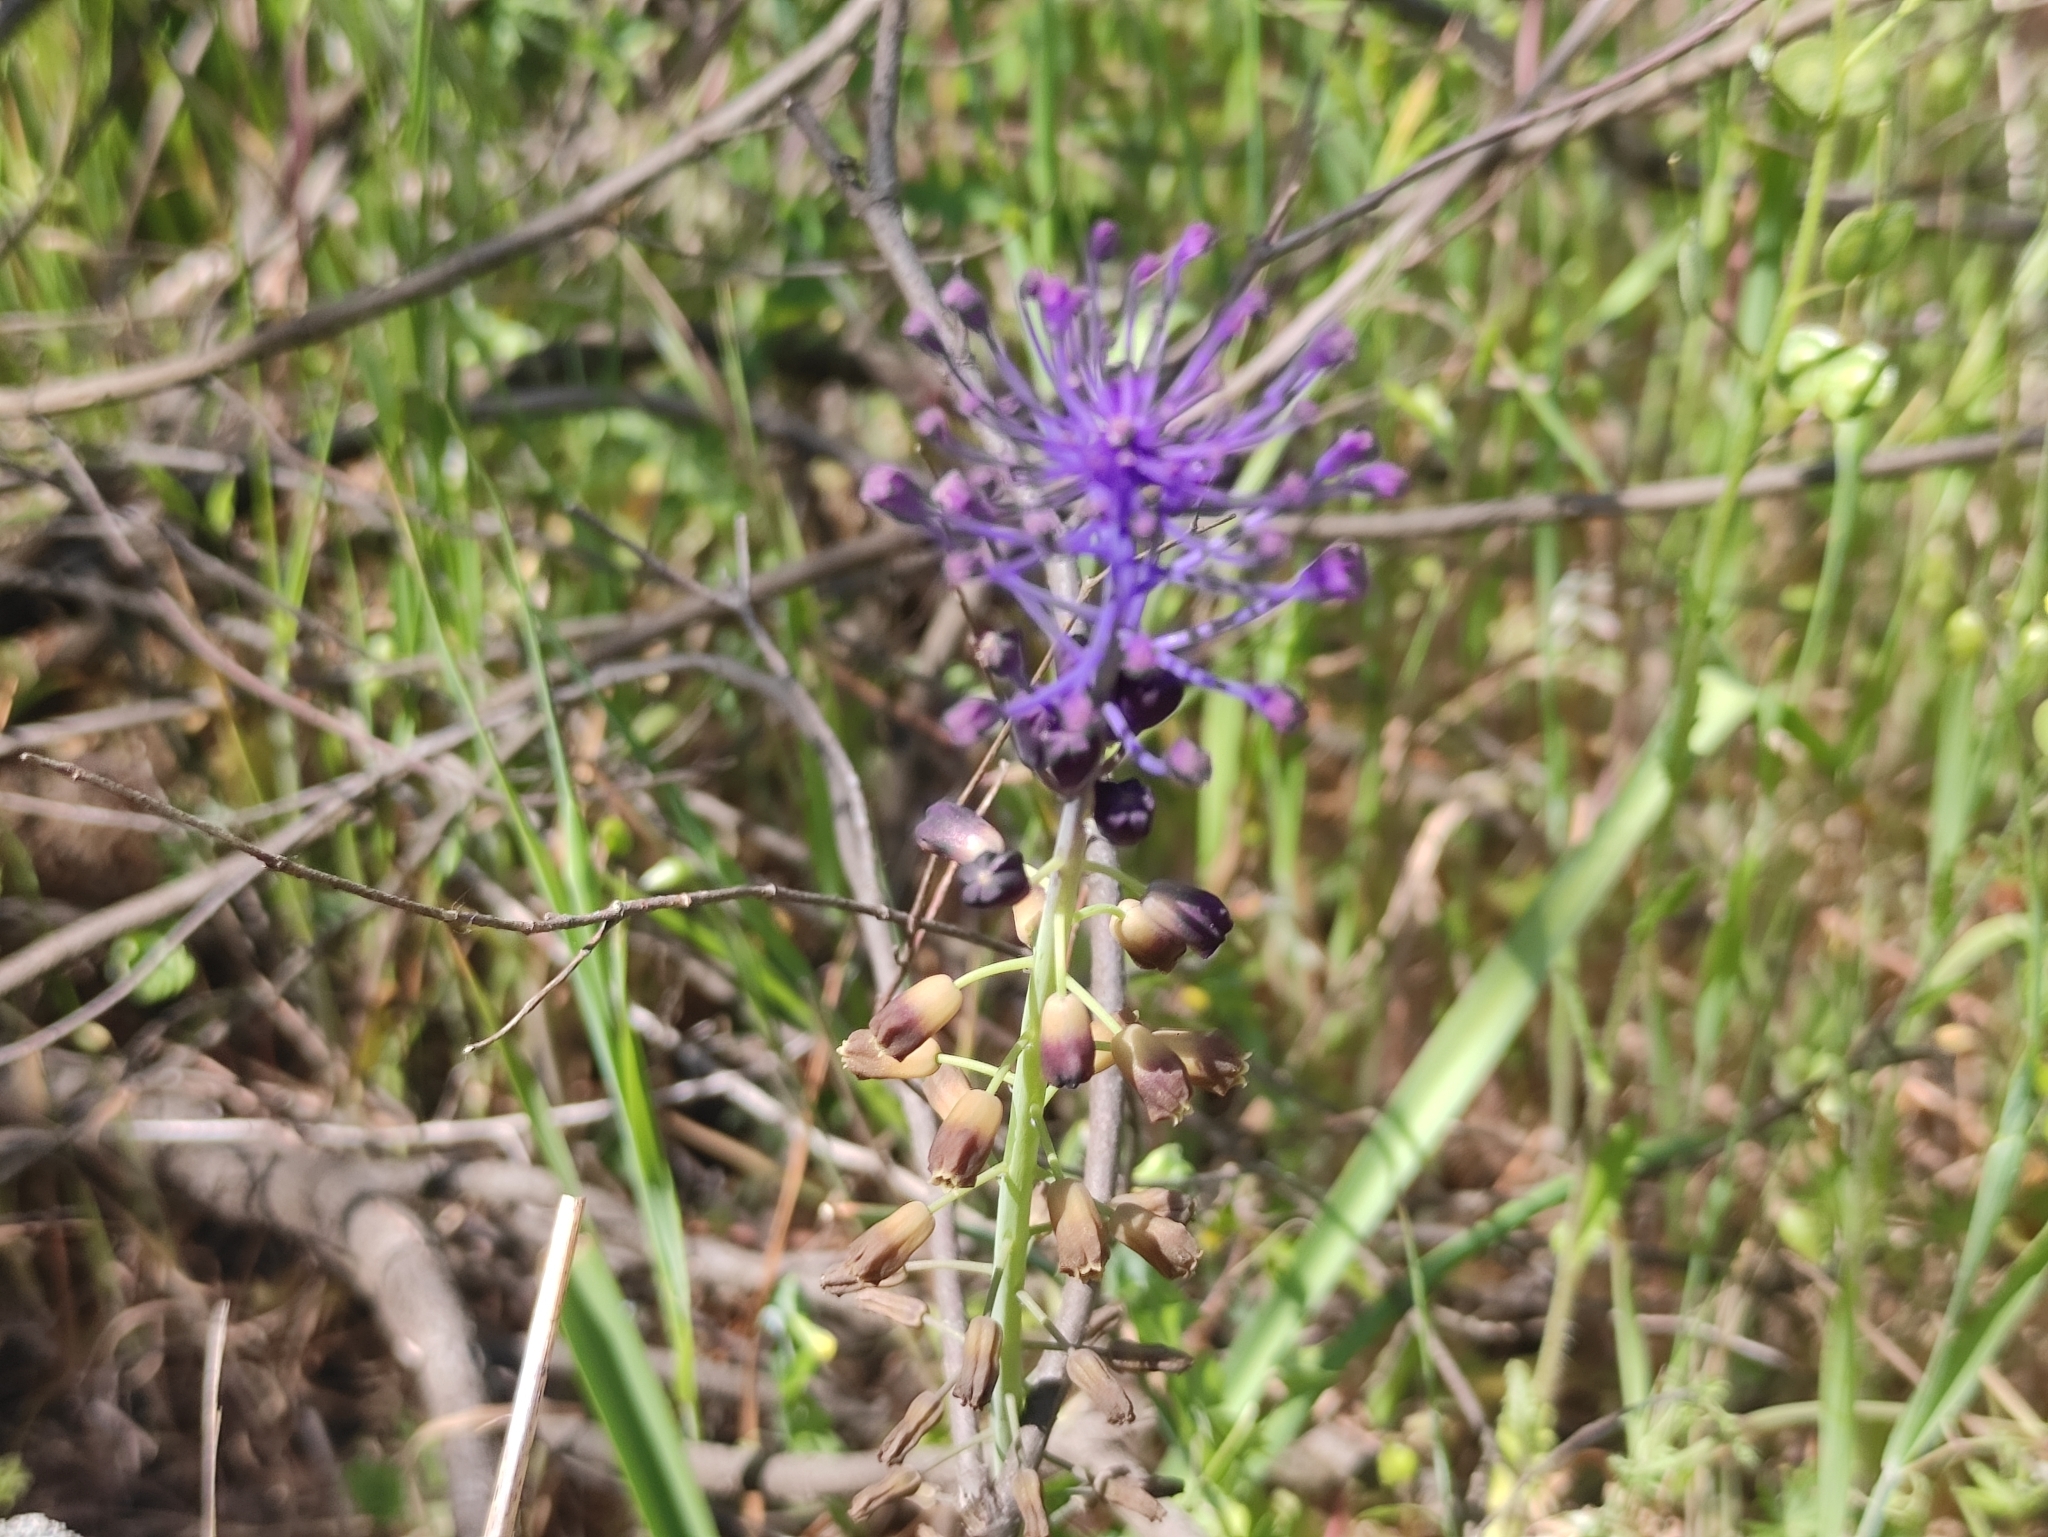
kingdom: Plantae
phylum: Tracheophyta
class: Liliopsida
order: Asparagales
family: Asparagaceae
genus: Muscari
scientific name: Muscari comosum
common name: Tassel hyacinth
